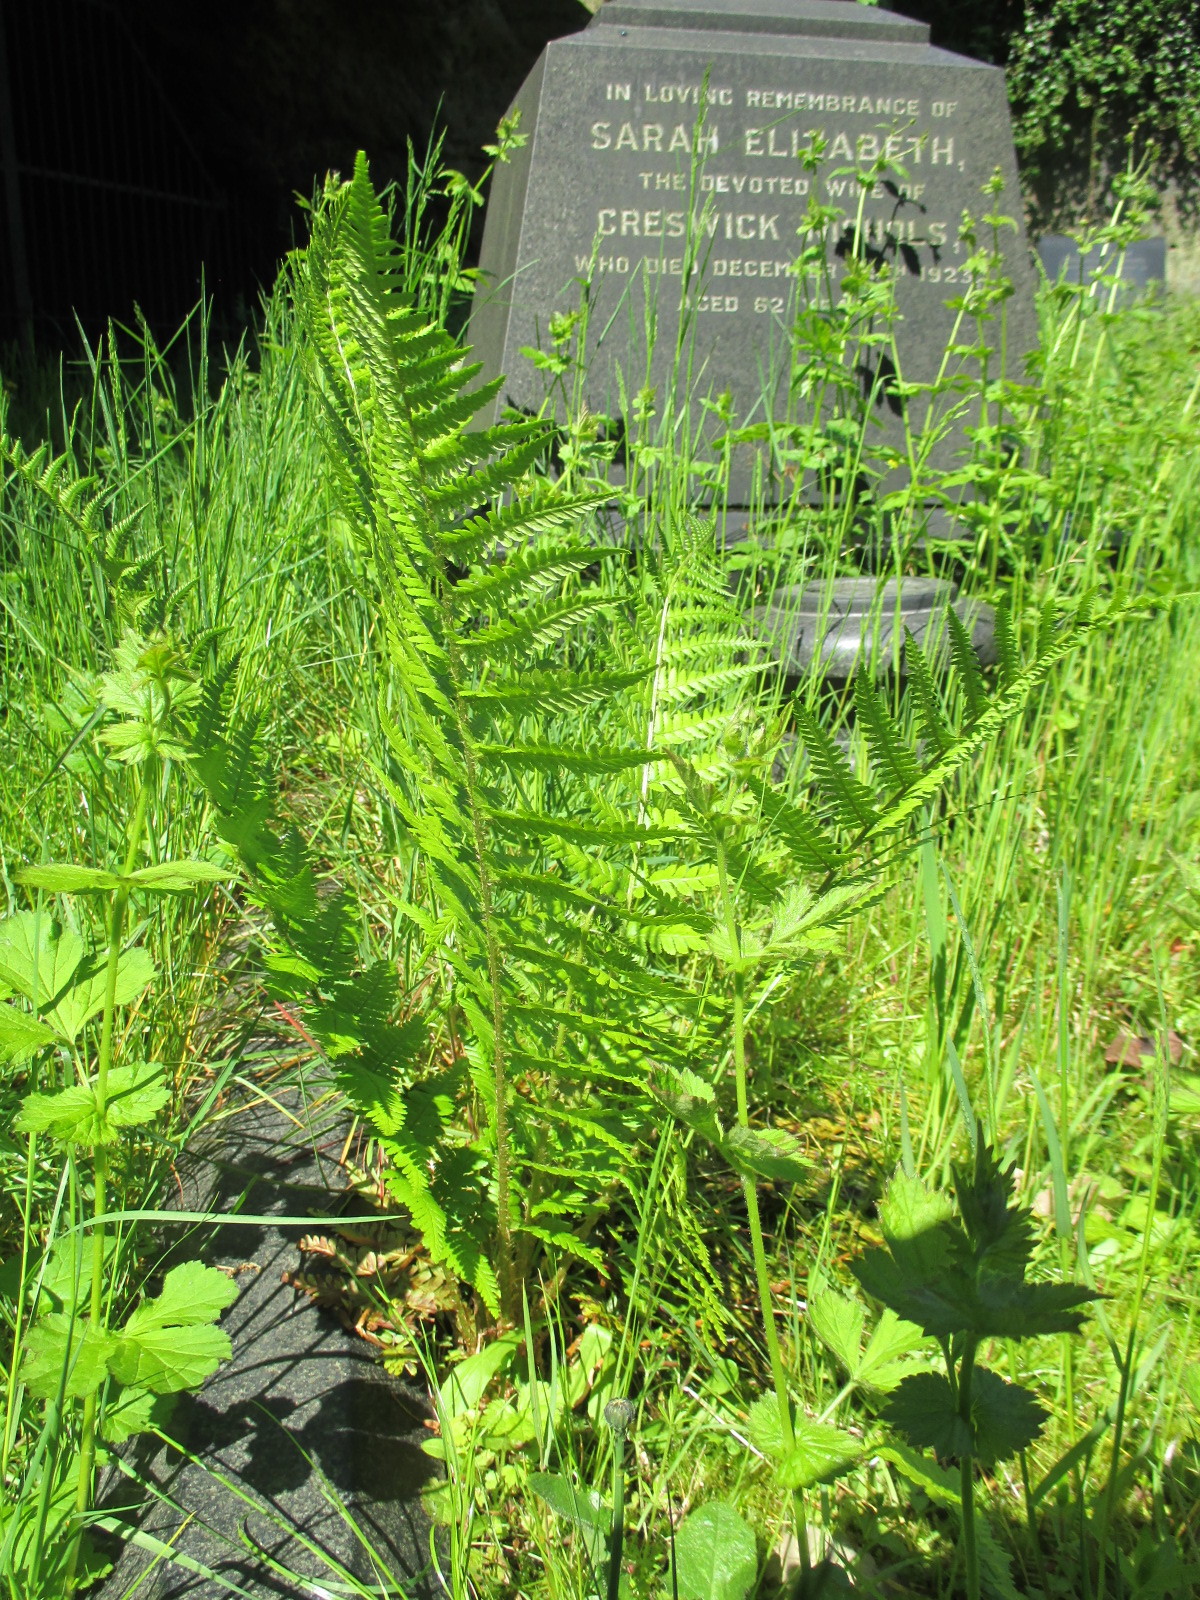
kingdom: Plantae
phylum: Tracheophyta
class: Polypodiopsida
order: Polypodiales
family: Dryopteridaceae
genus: Dryopteris
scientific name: Dryopteris filix-mas
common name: Male fern
